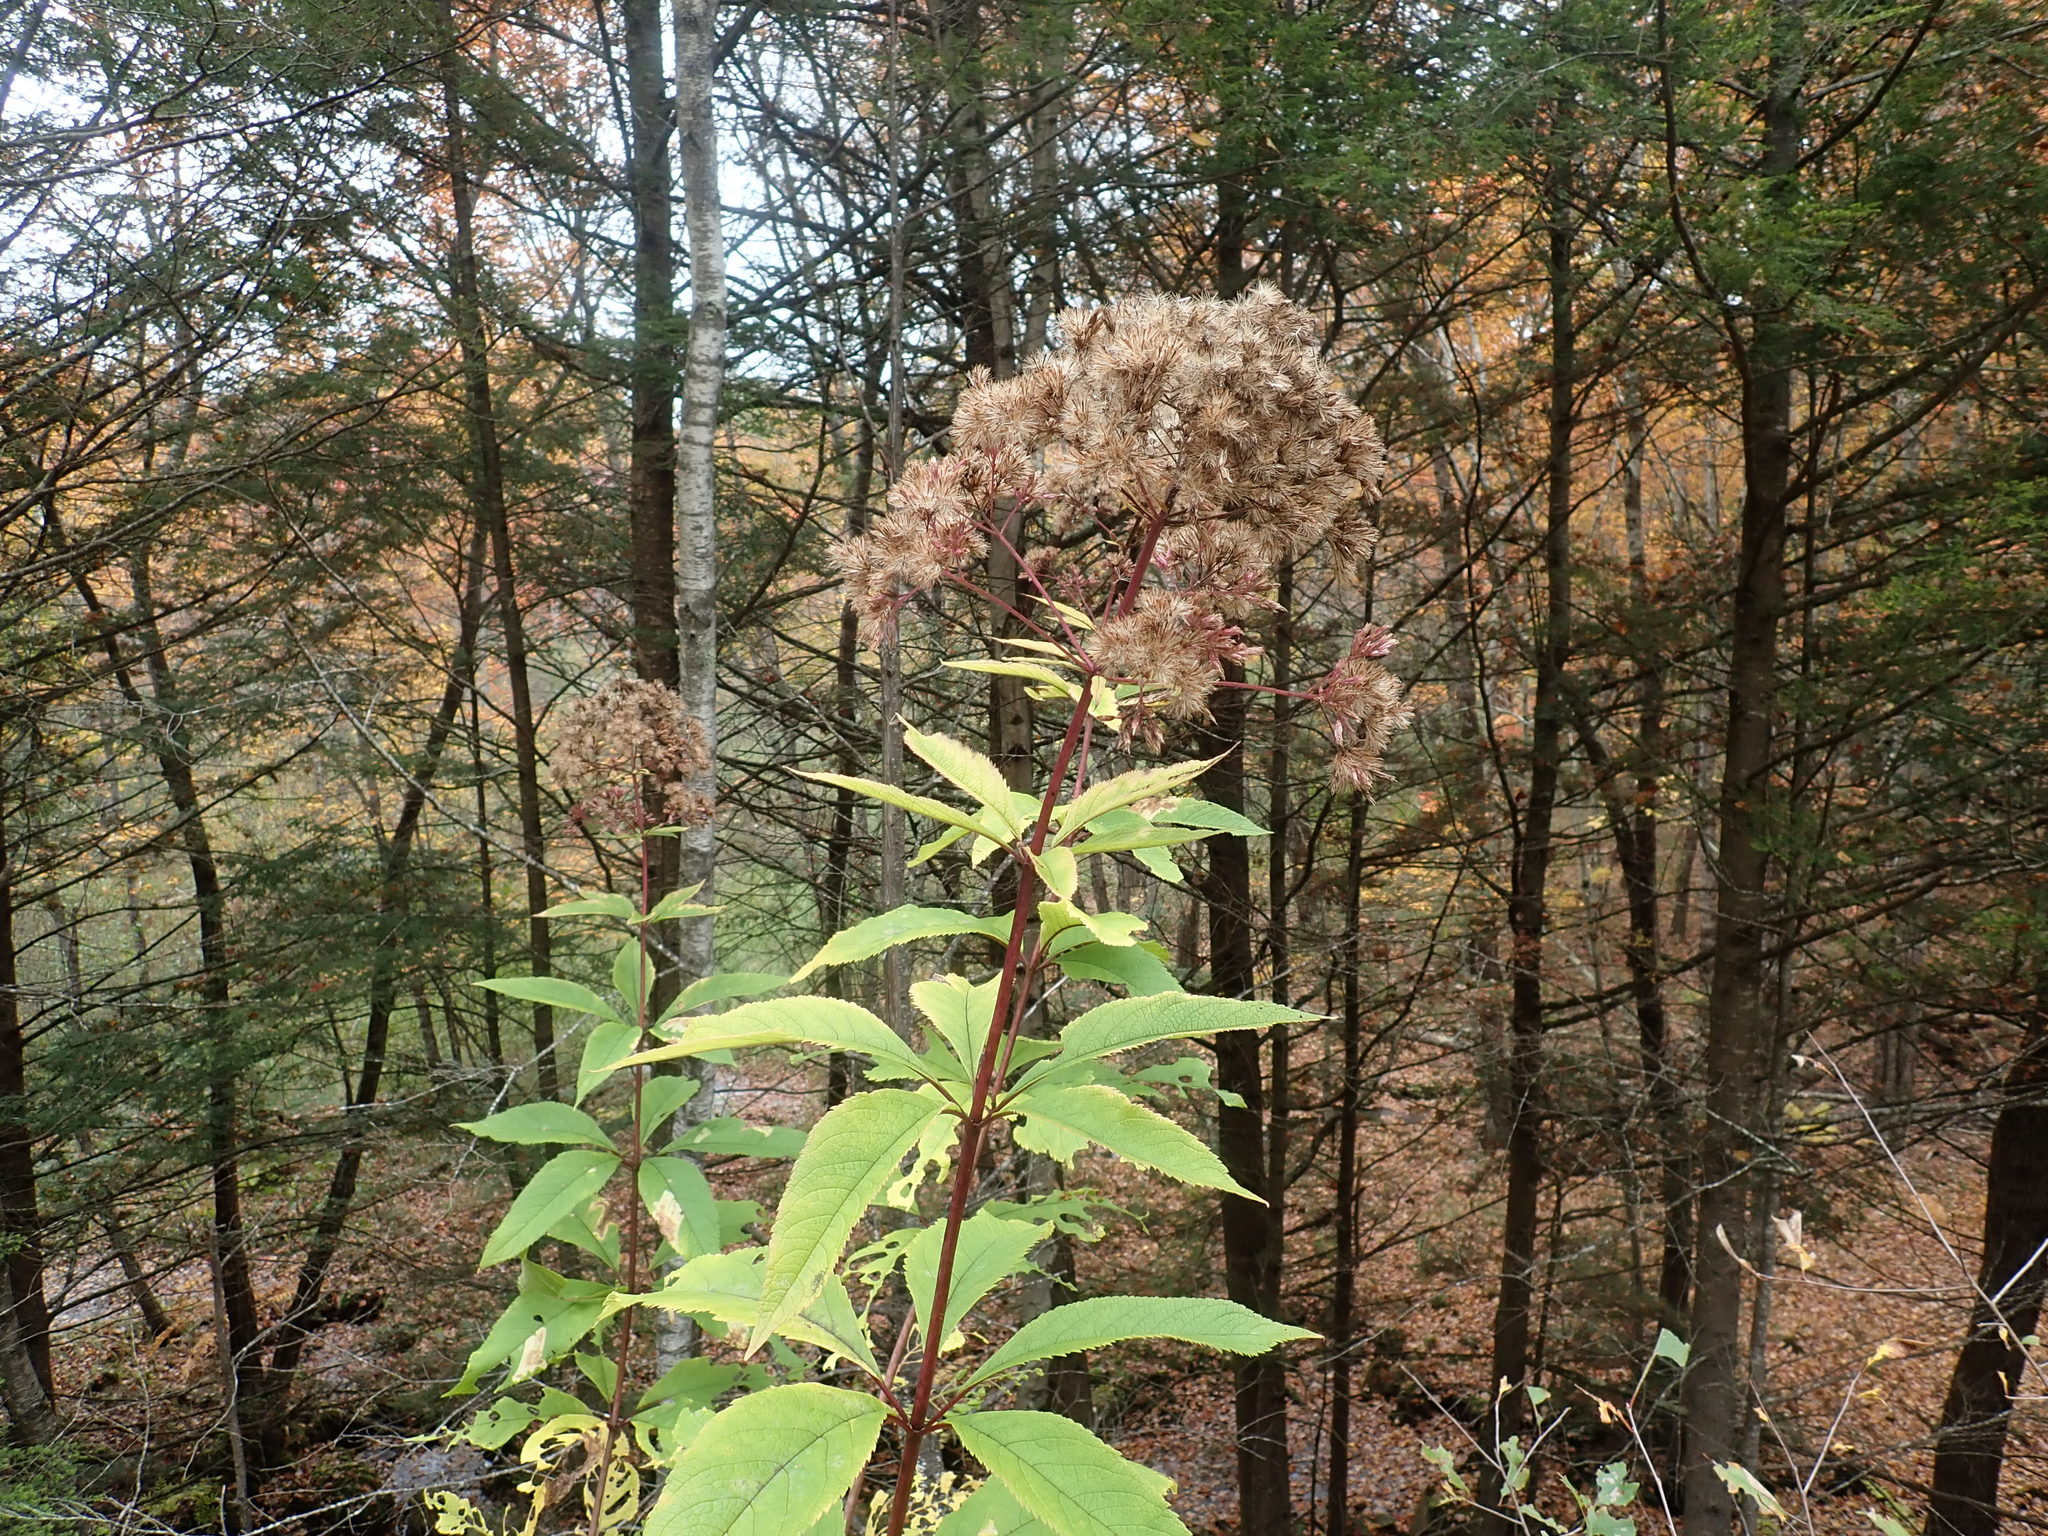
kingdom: Plantae
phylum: Tracheophyta
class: Magnoliopsida
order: Asterales
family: Asteraceae
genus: Eutrochium
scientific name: Eutrochium
